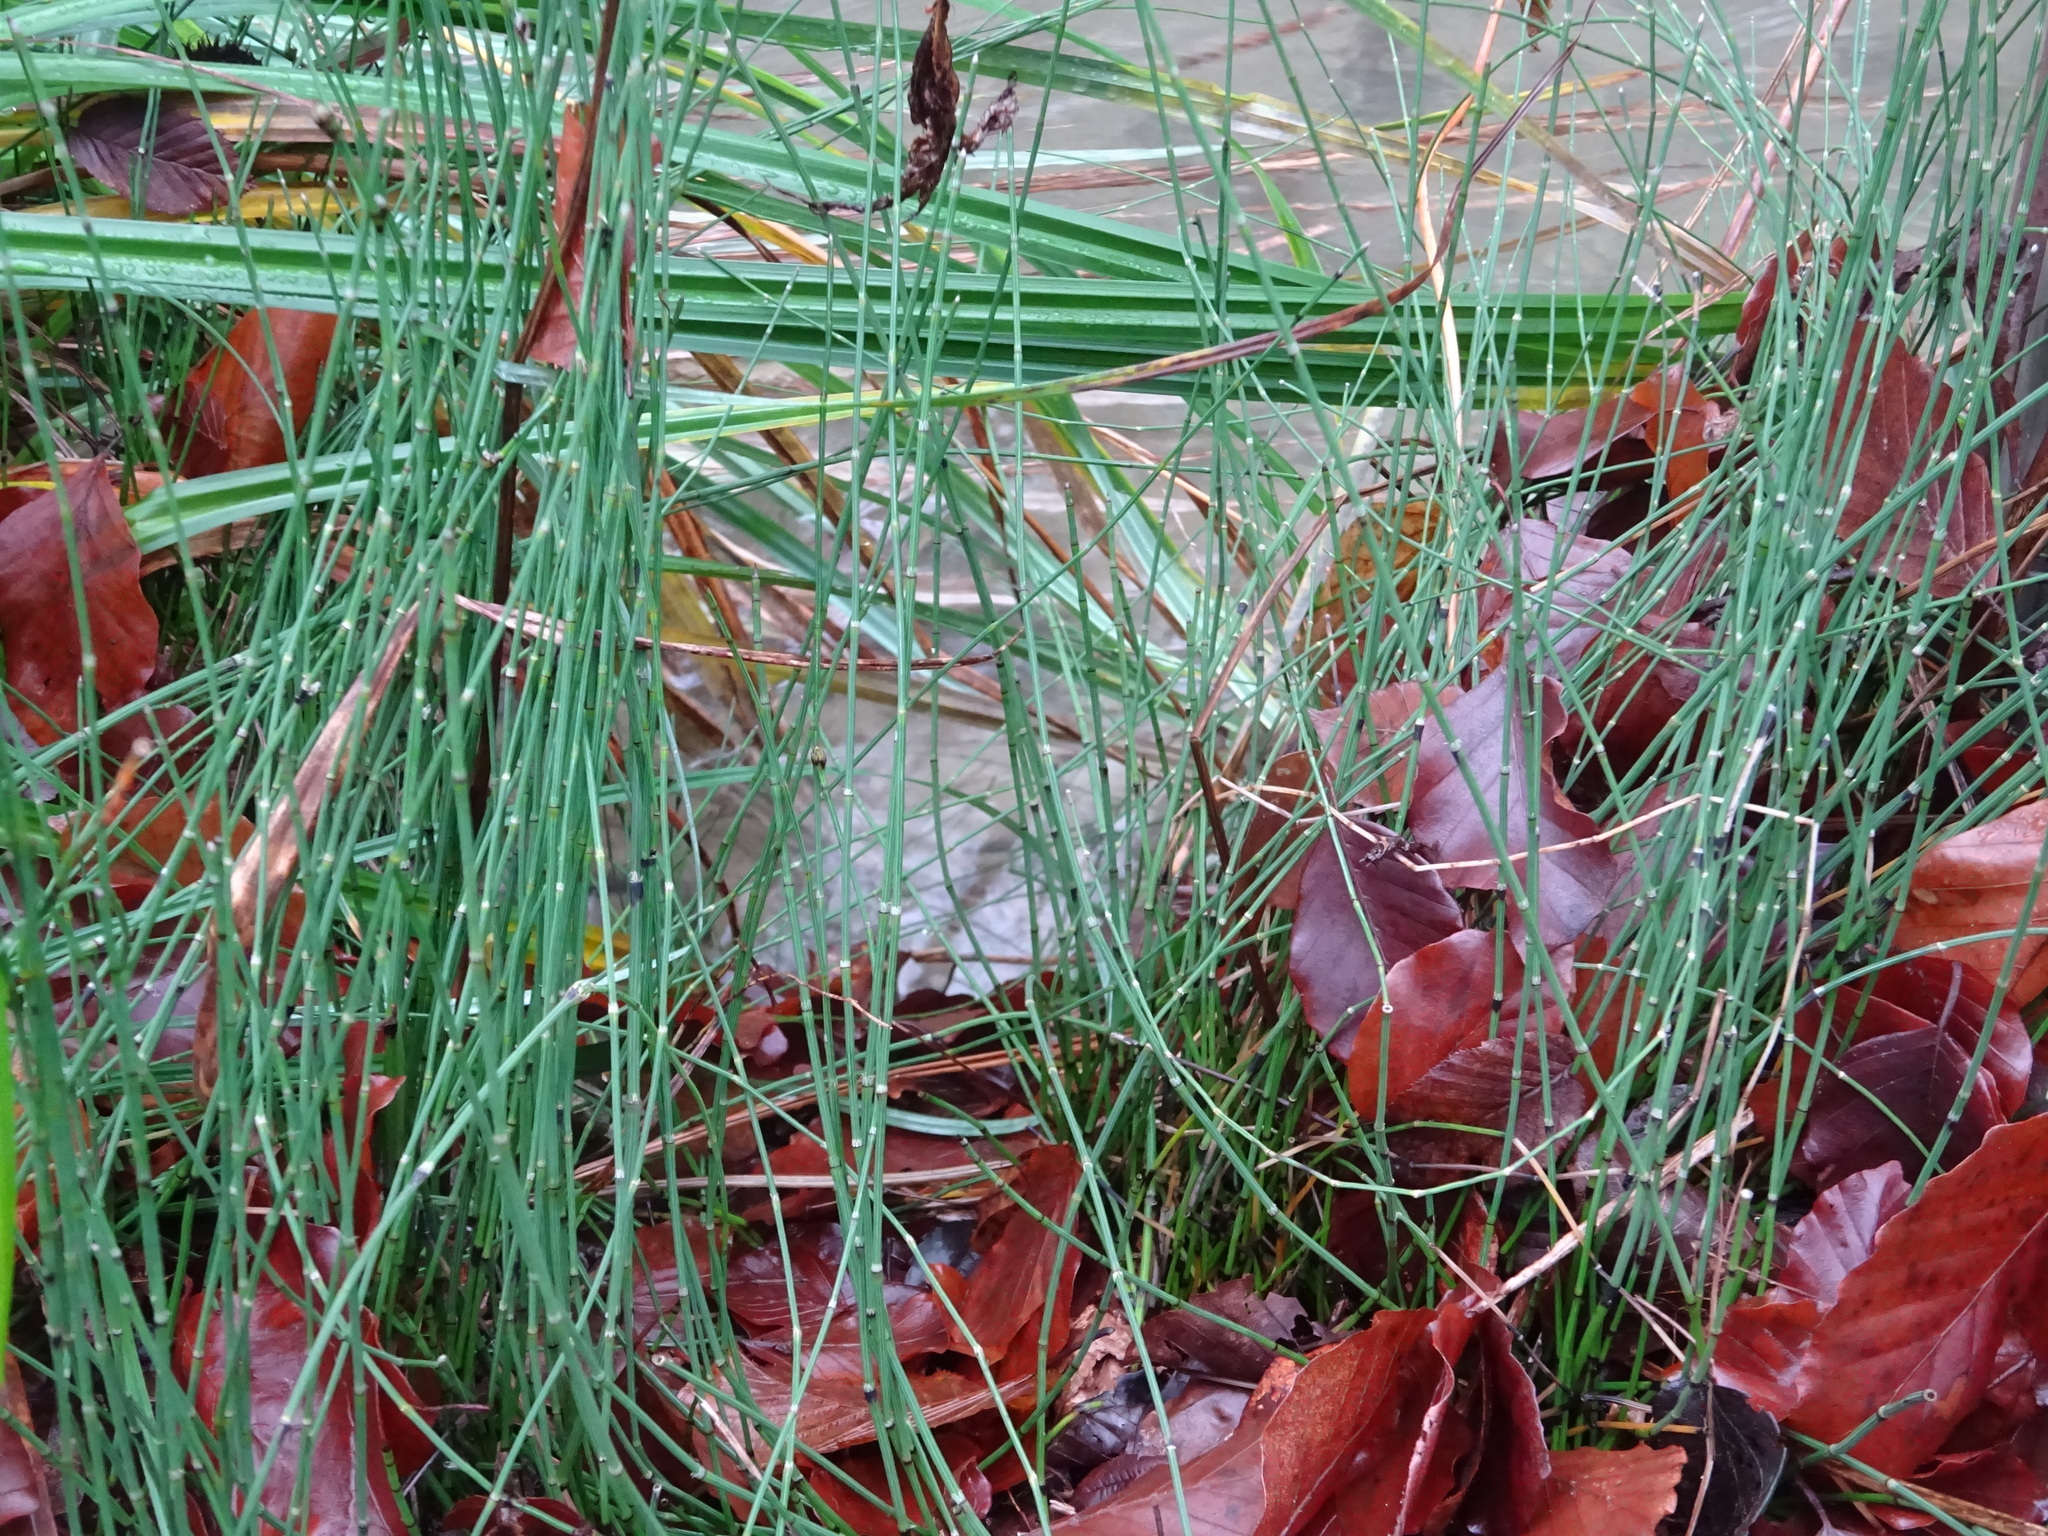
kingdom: Plantae
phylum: Tracheophyta
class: Polypodiopsida
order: Equisetales
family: Equisetaceae
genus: Equisetum
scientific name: Equisetum variegatum
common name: Variegated horsetail
